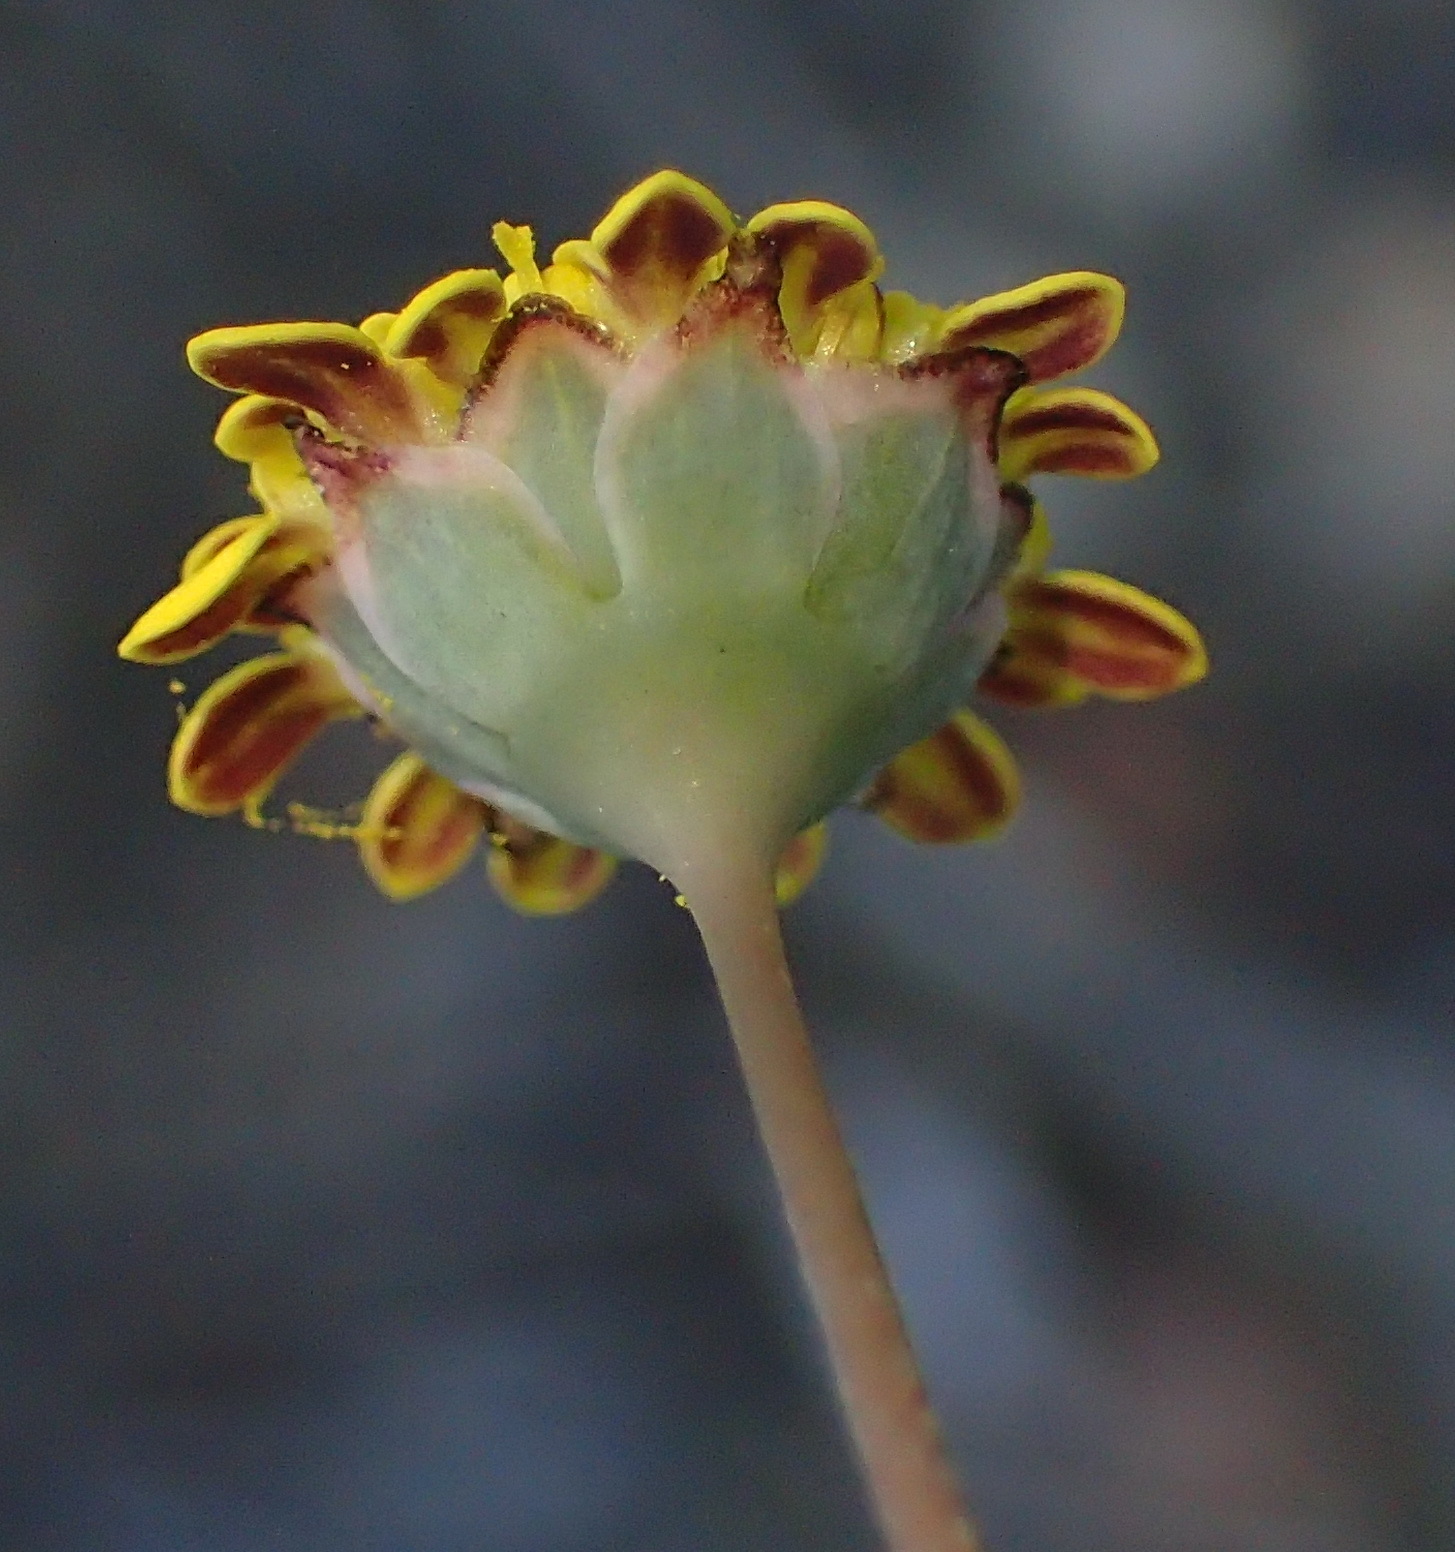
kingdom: Plantae
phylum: Tracheophyta
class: Magnoliopsida
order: Asterales
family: Asteraceae
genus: Cotula
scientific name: Cotula discolor
